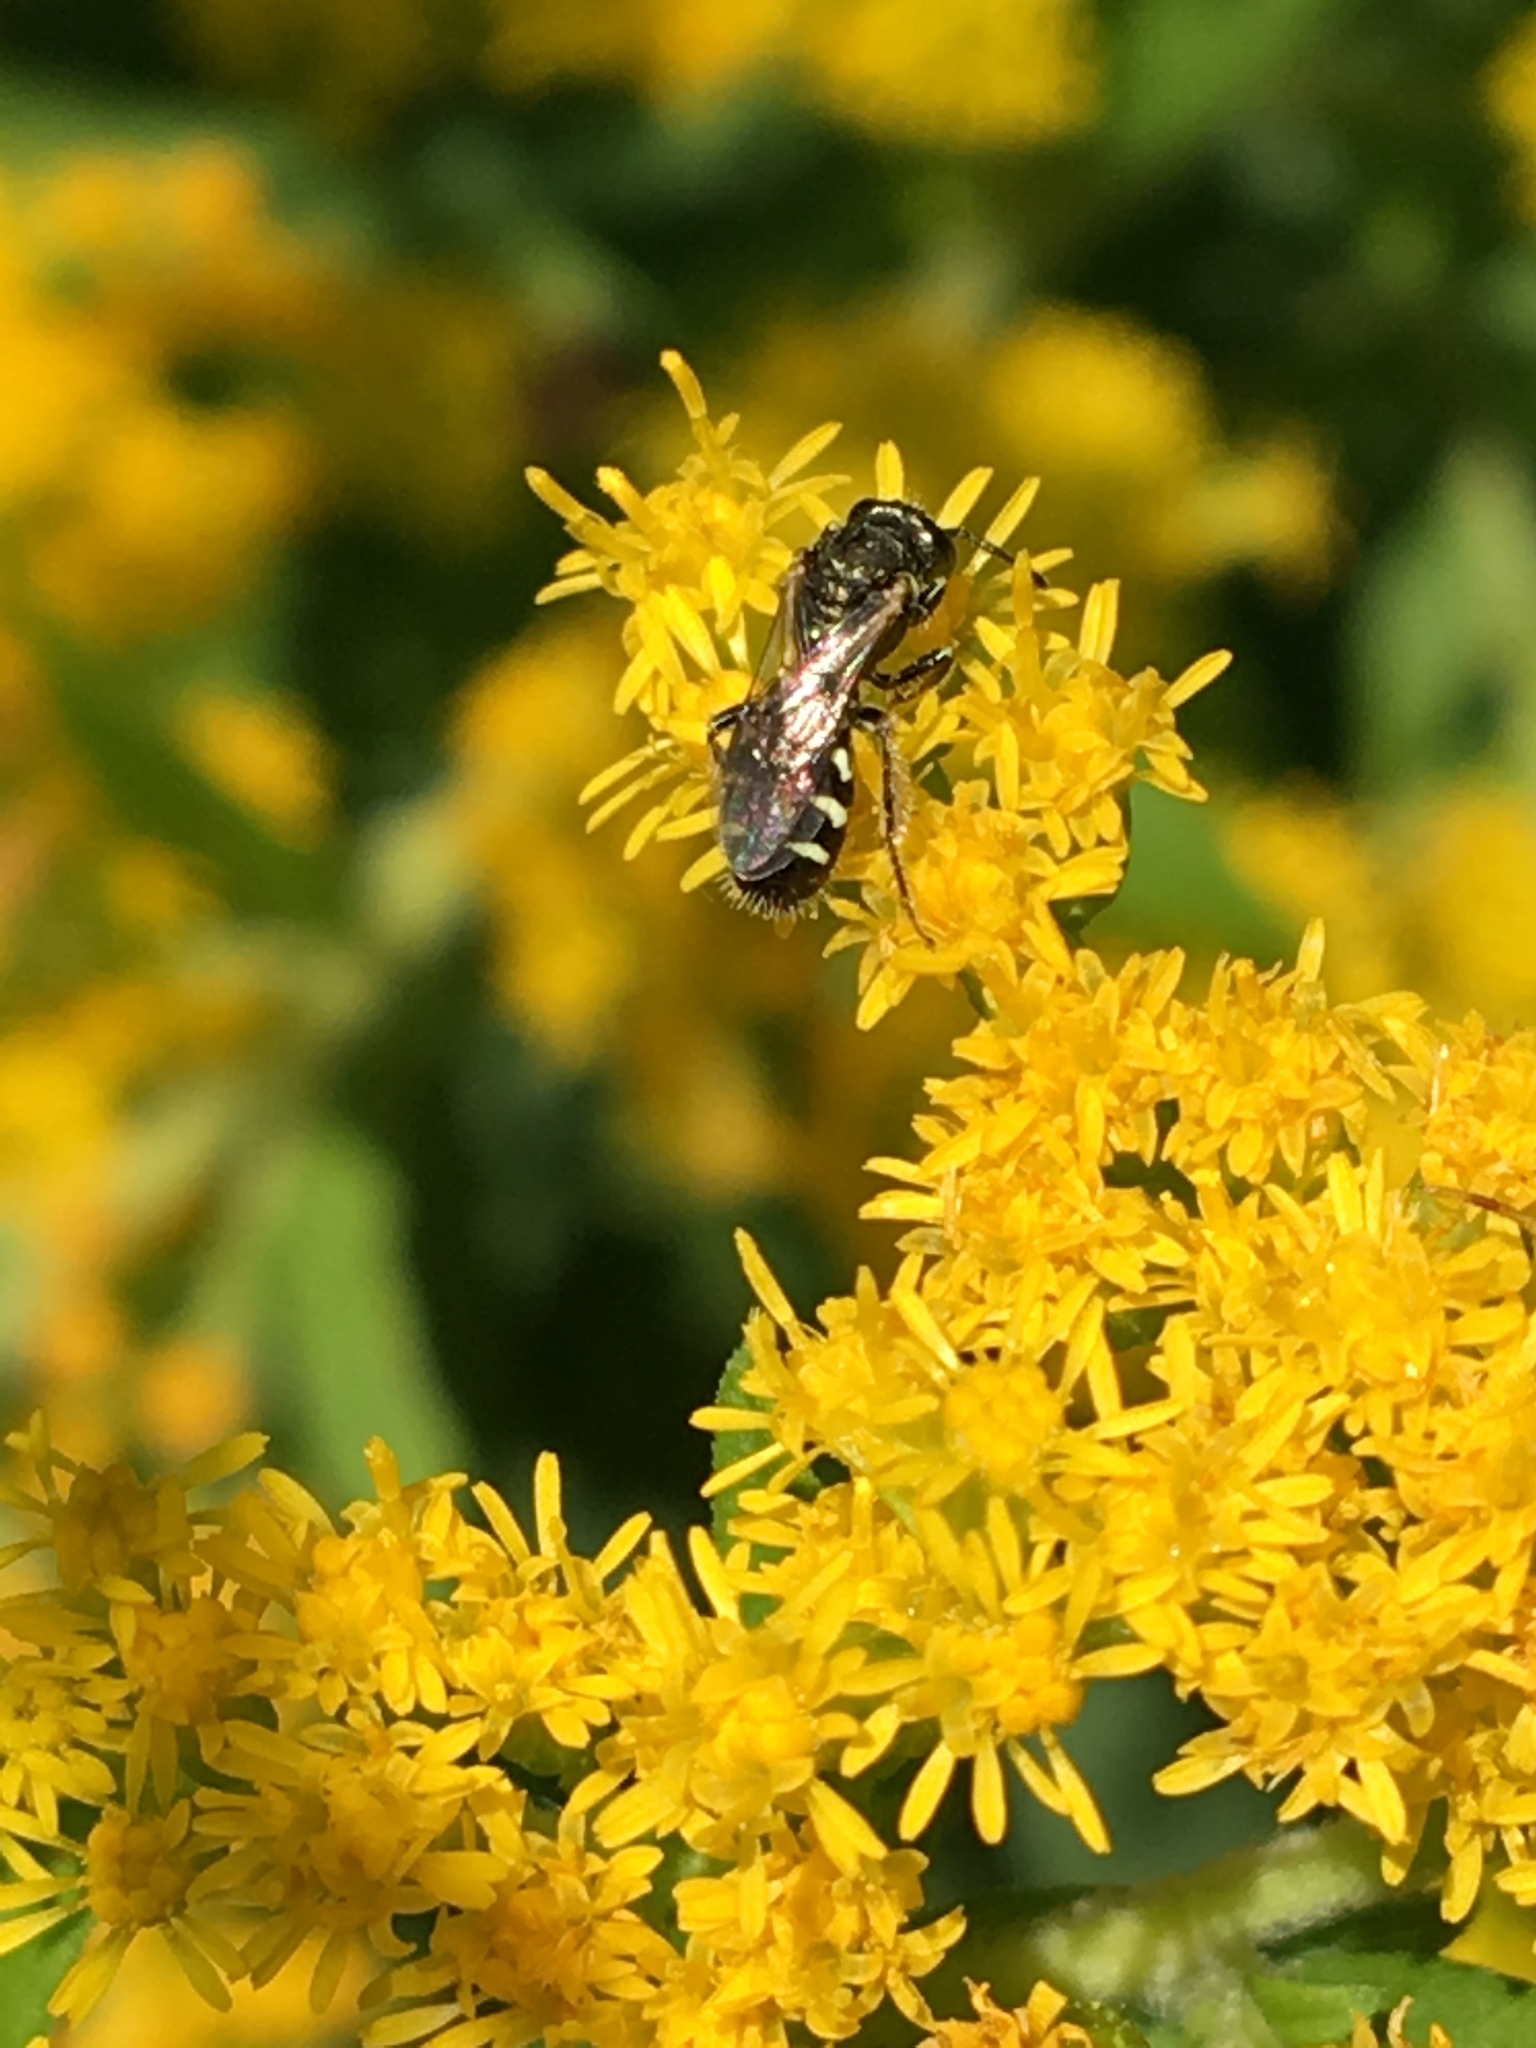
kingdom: Animalia
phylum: Arthropoda
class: Insecta
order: Hymenoptera
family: Andrenidae
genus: Perdita
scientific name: Perdita octomaculata
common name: Eight-spotted miner bee
